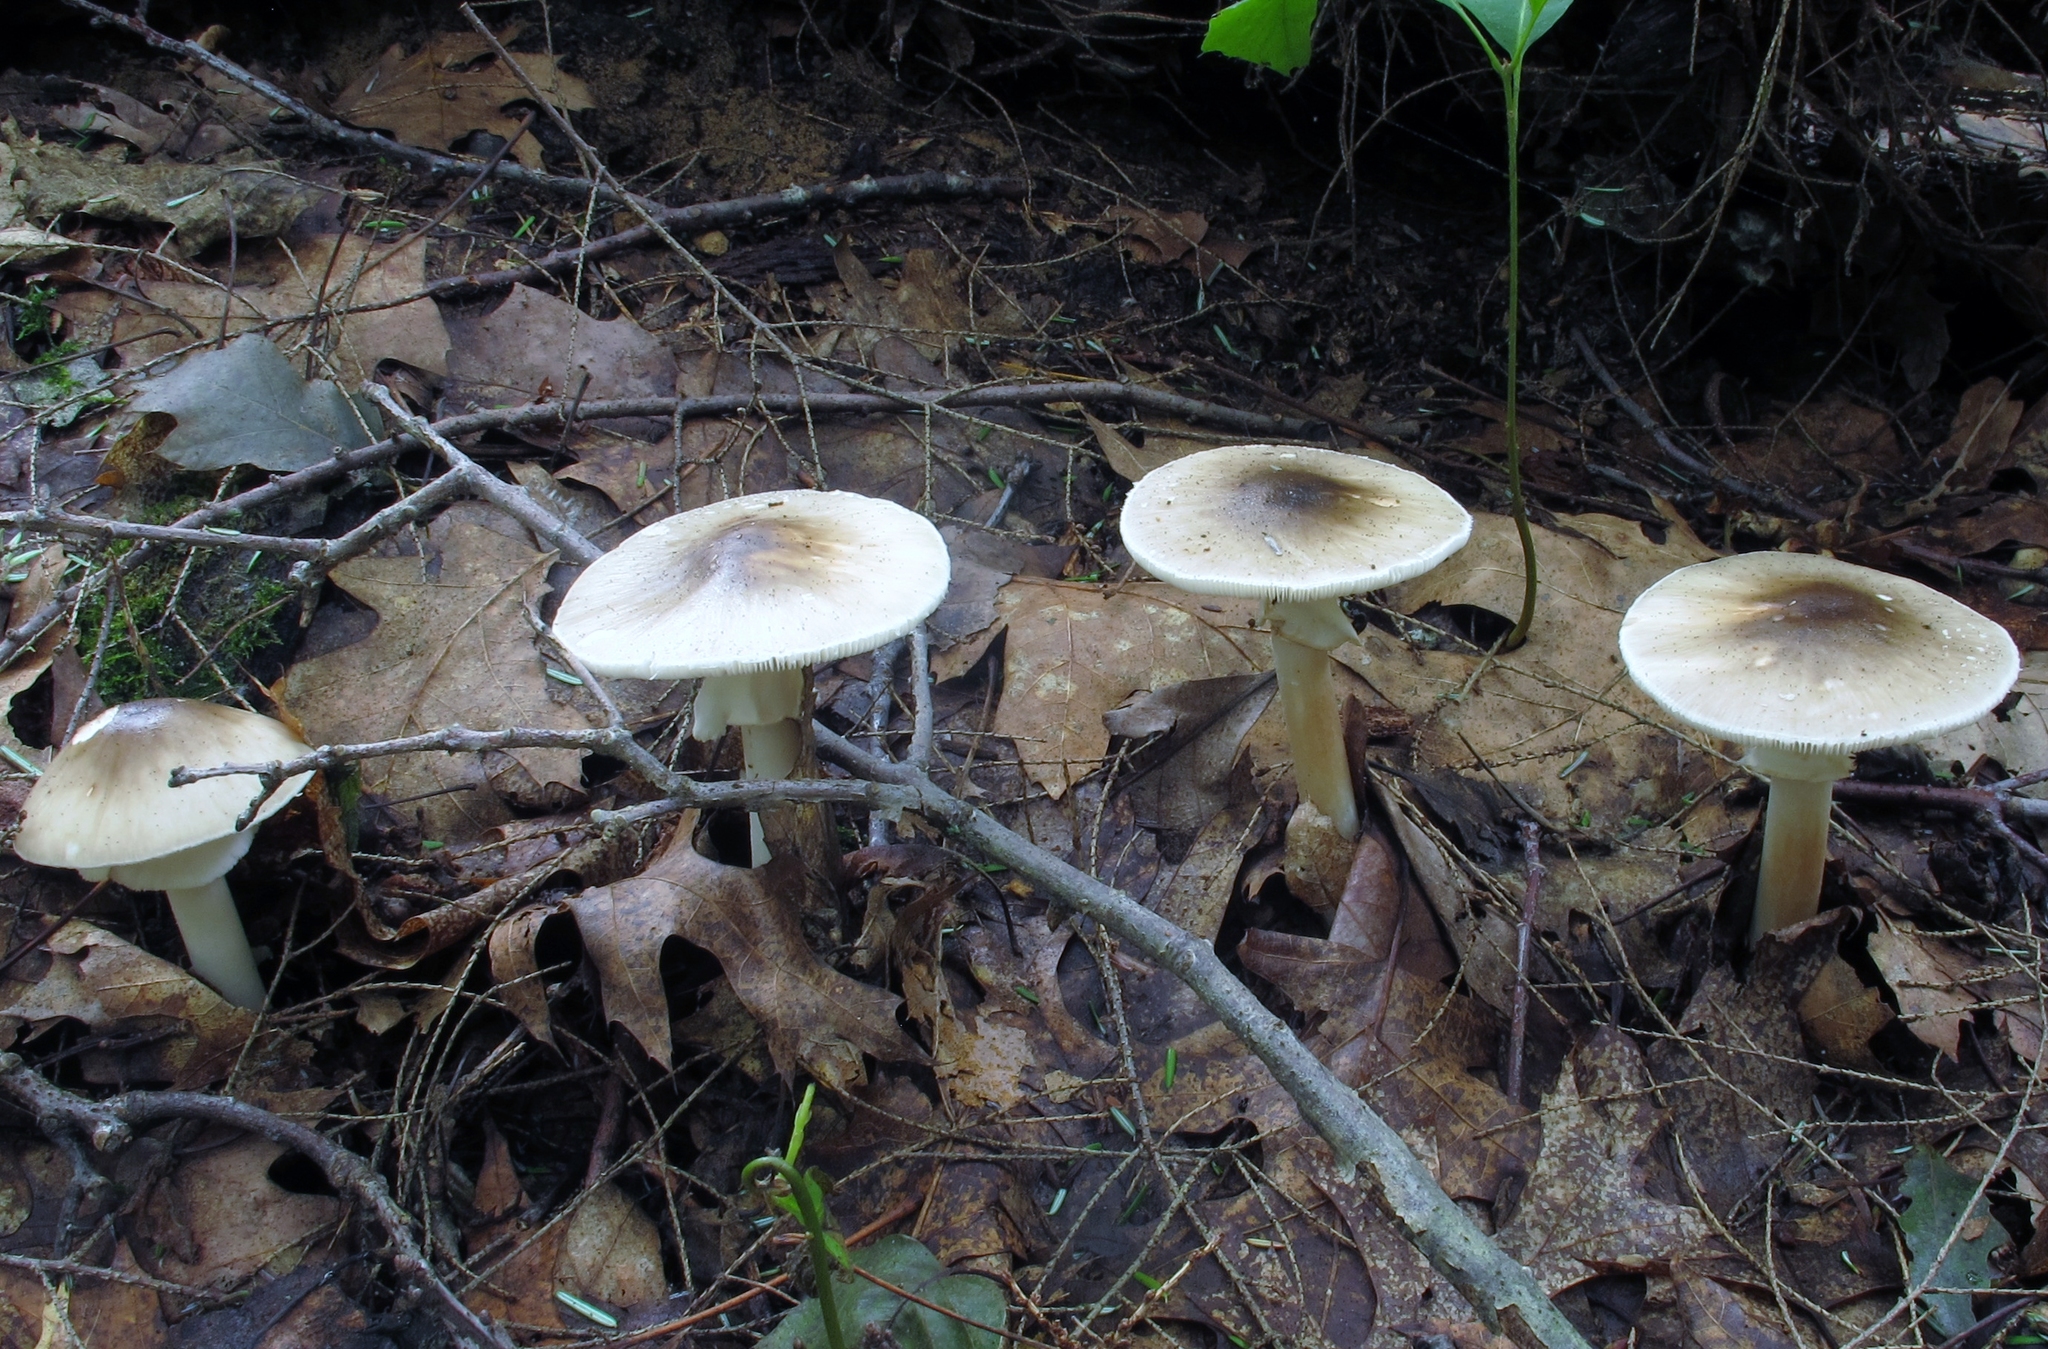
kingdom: Fungi
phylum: Basidiomycota
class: Agaricomycetes
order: Agaricales
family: Amanitaceae
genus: Amanita
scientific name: Amanita brunnescens
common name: Brown american star-footed amanita
